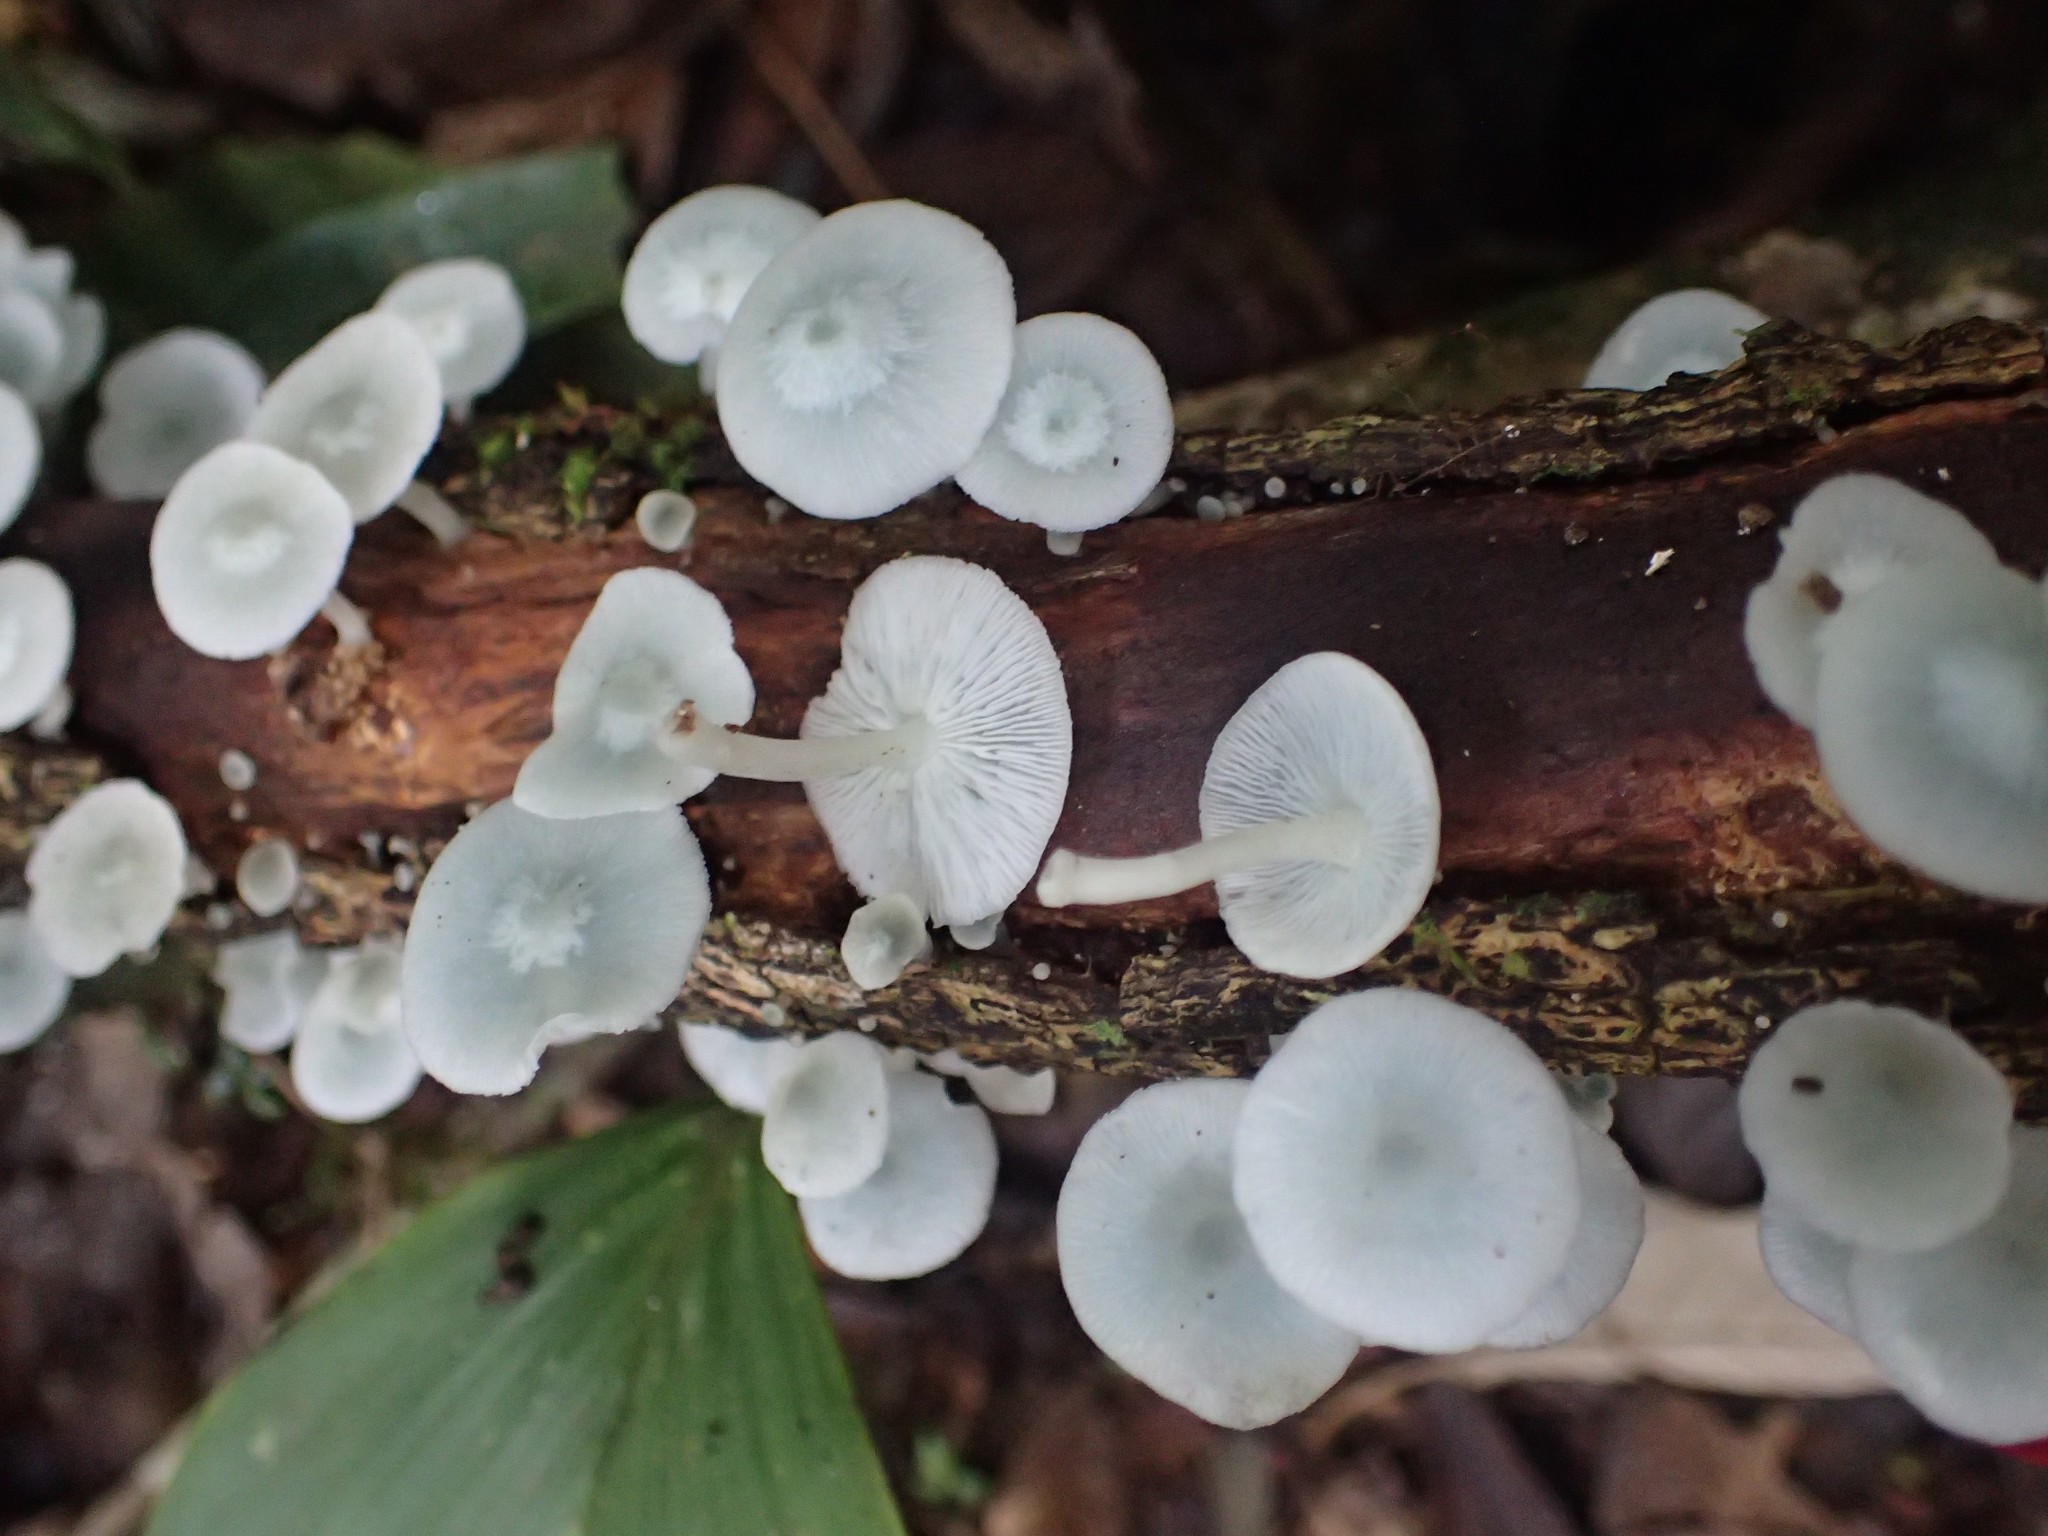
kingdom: Fungi
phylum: Basidiomycota
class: Agaricomycetes
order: Agaricales
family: Marasmiaceae
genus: Clitocybula
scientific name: Clitocybula azurea
